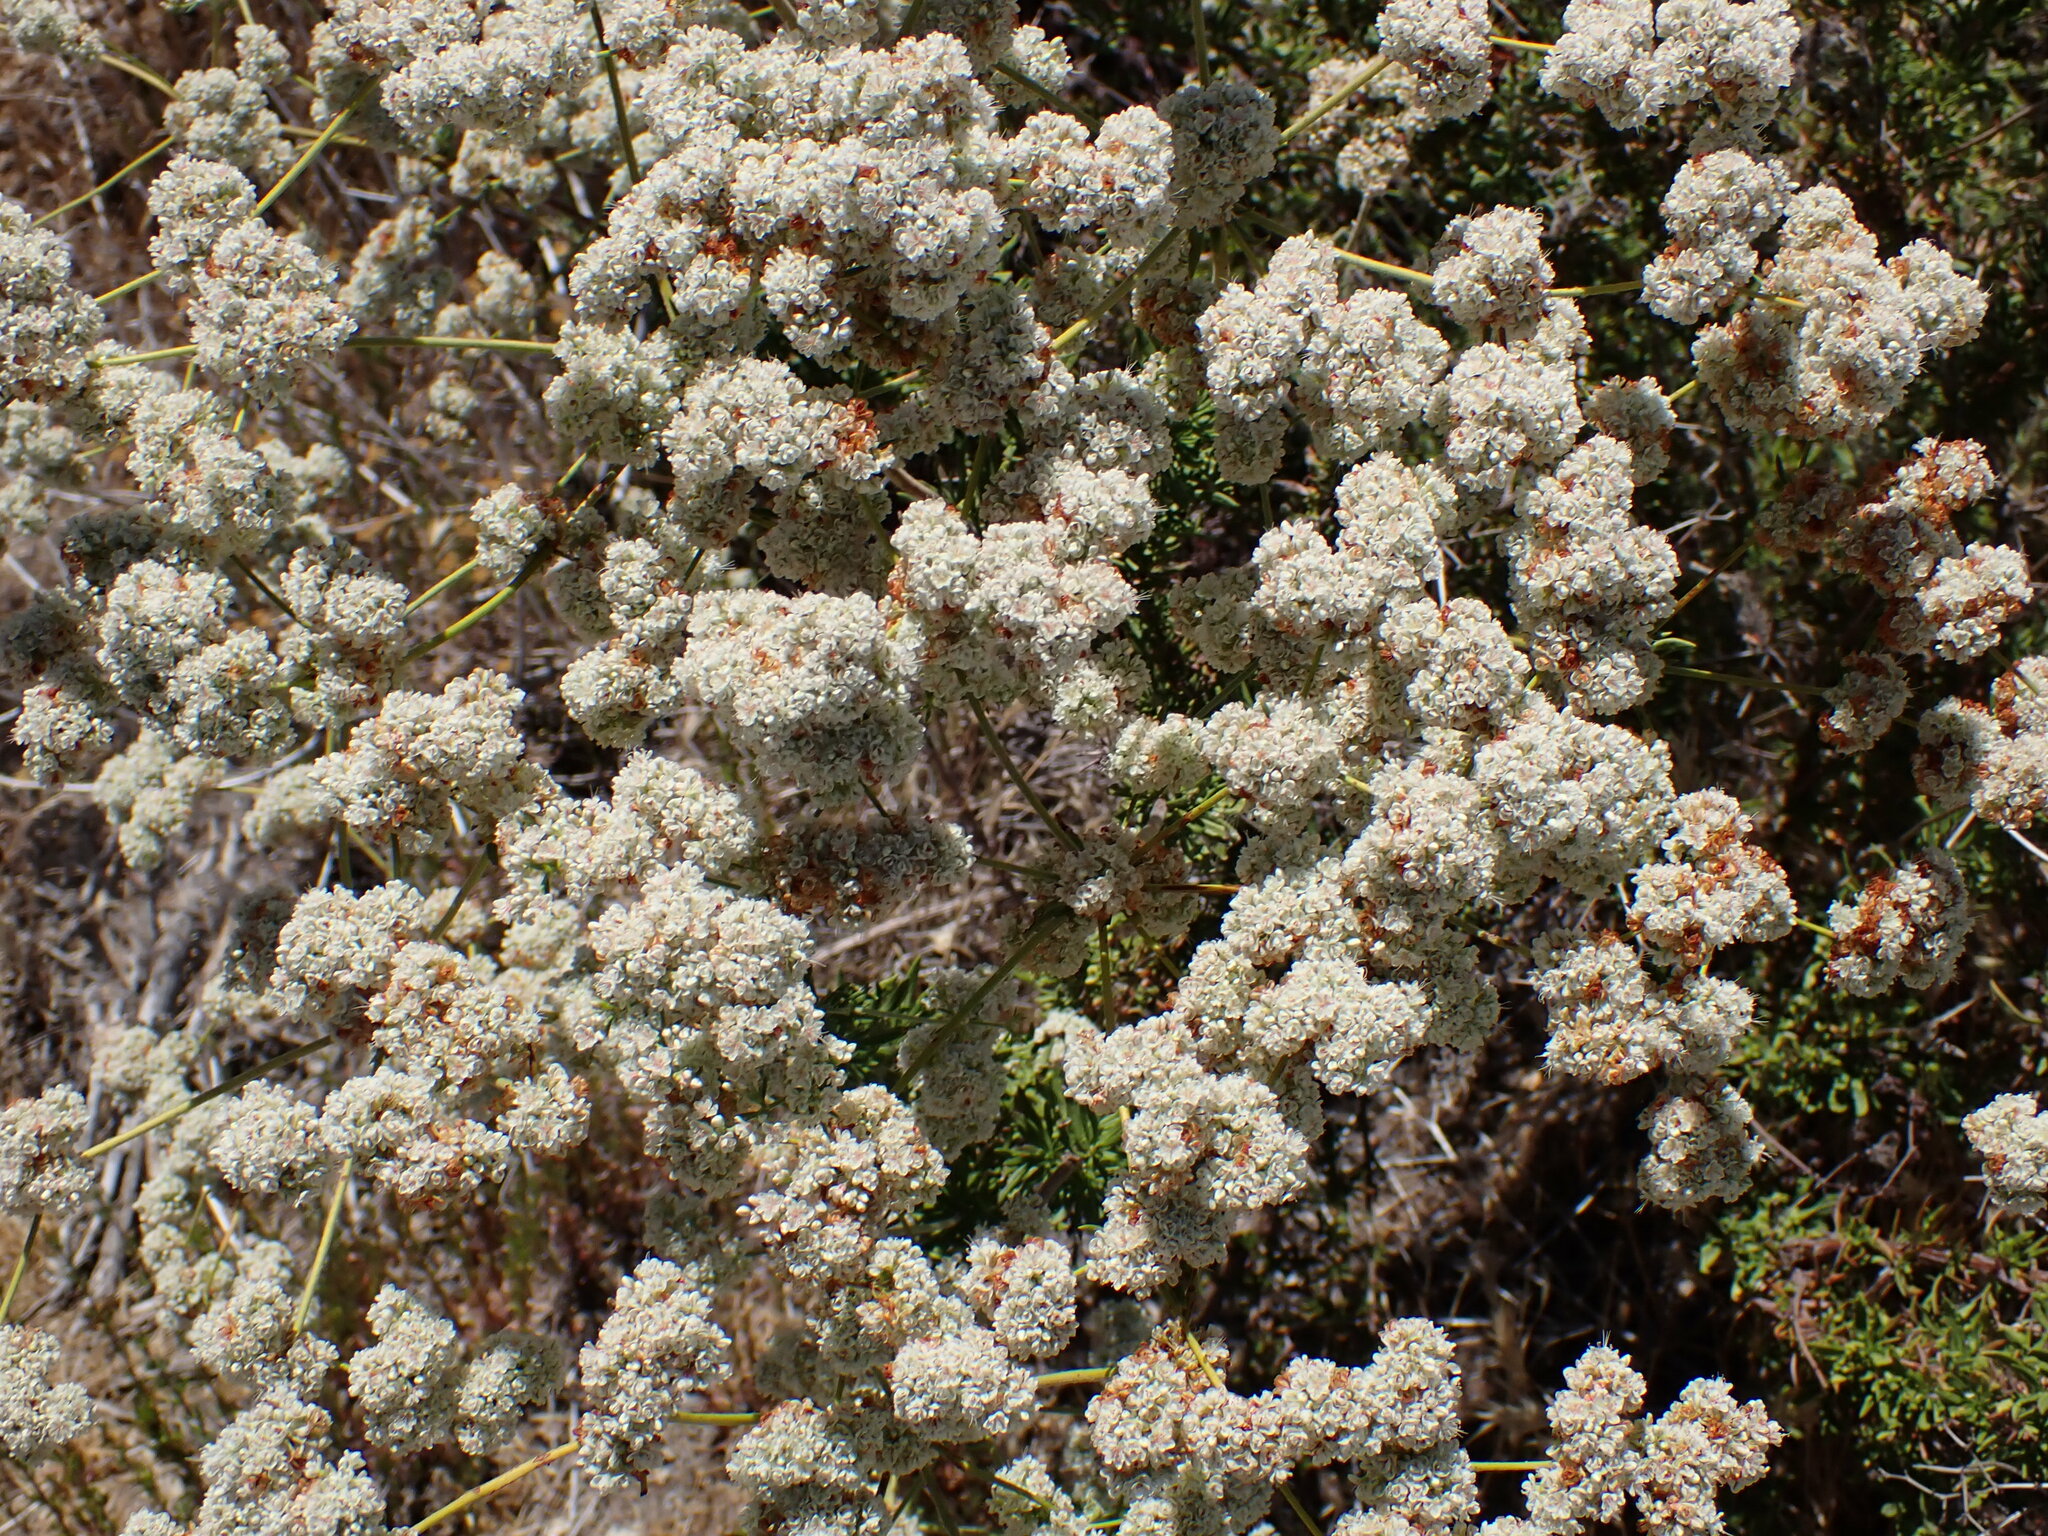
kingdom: Plantae
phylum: Tracheophyta
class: Magnoliopsida
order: Caryophyllales
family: Polygonaceae
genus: Eriogonum
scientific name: Eriogonum fasciculatum
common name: California wild buckwheat
